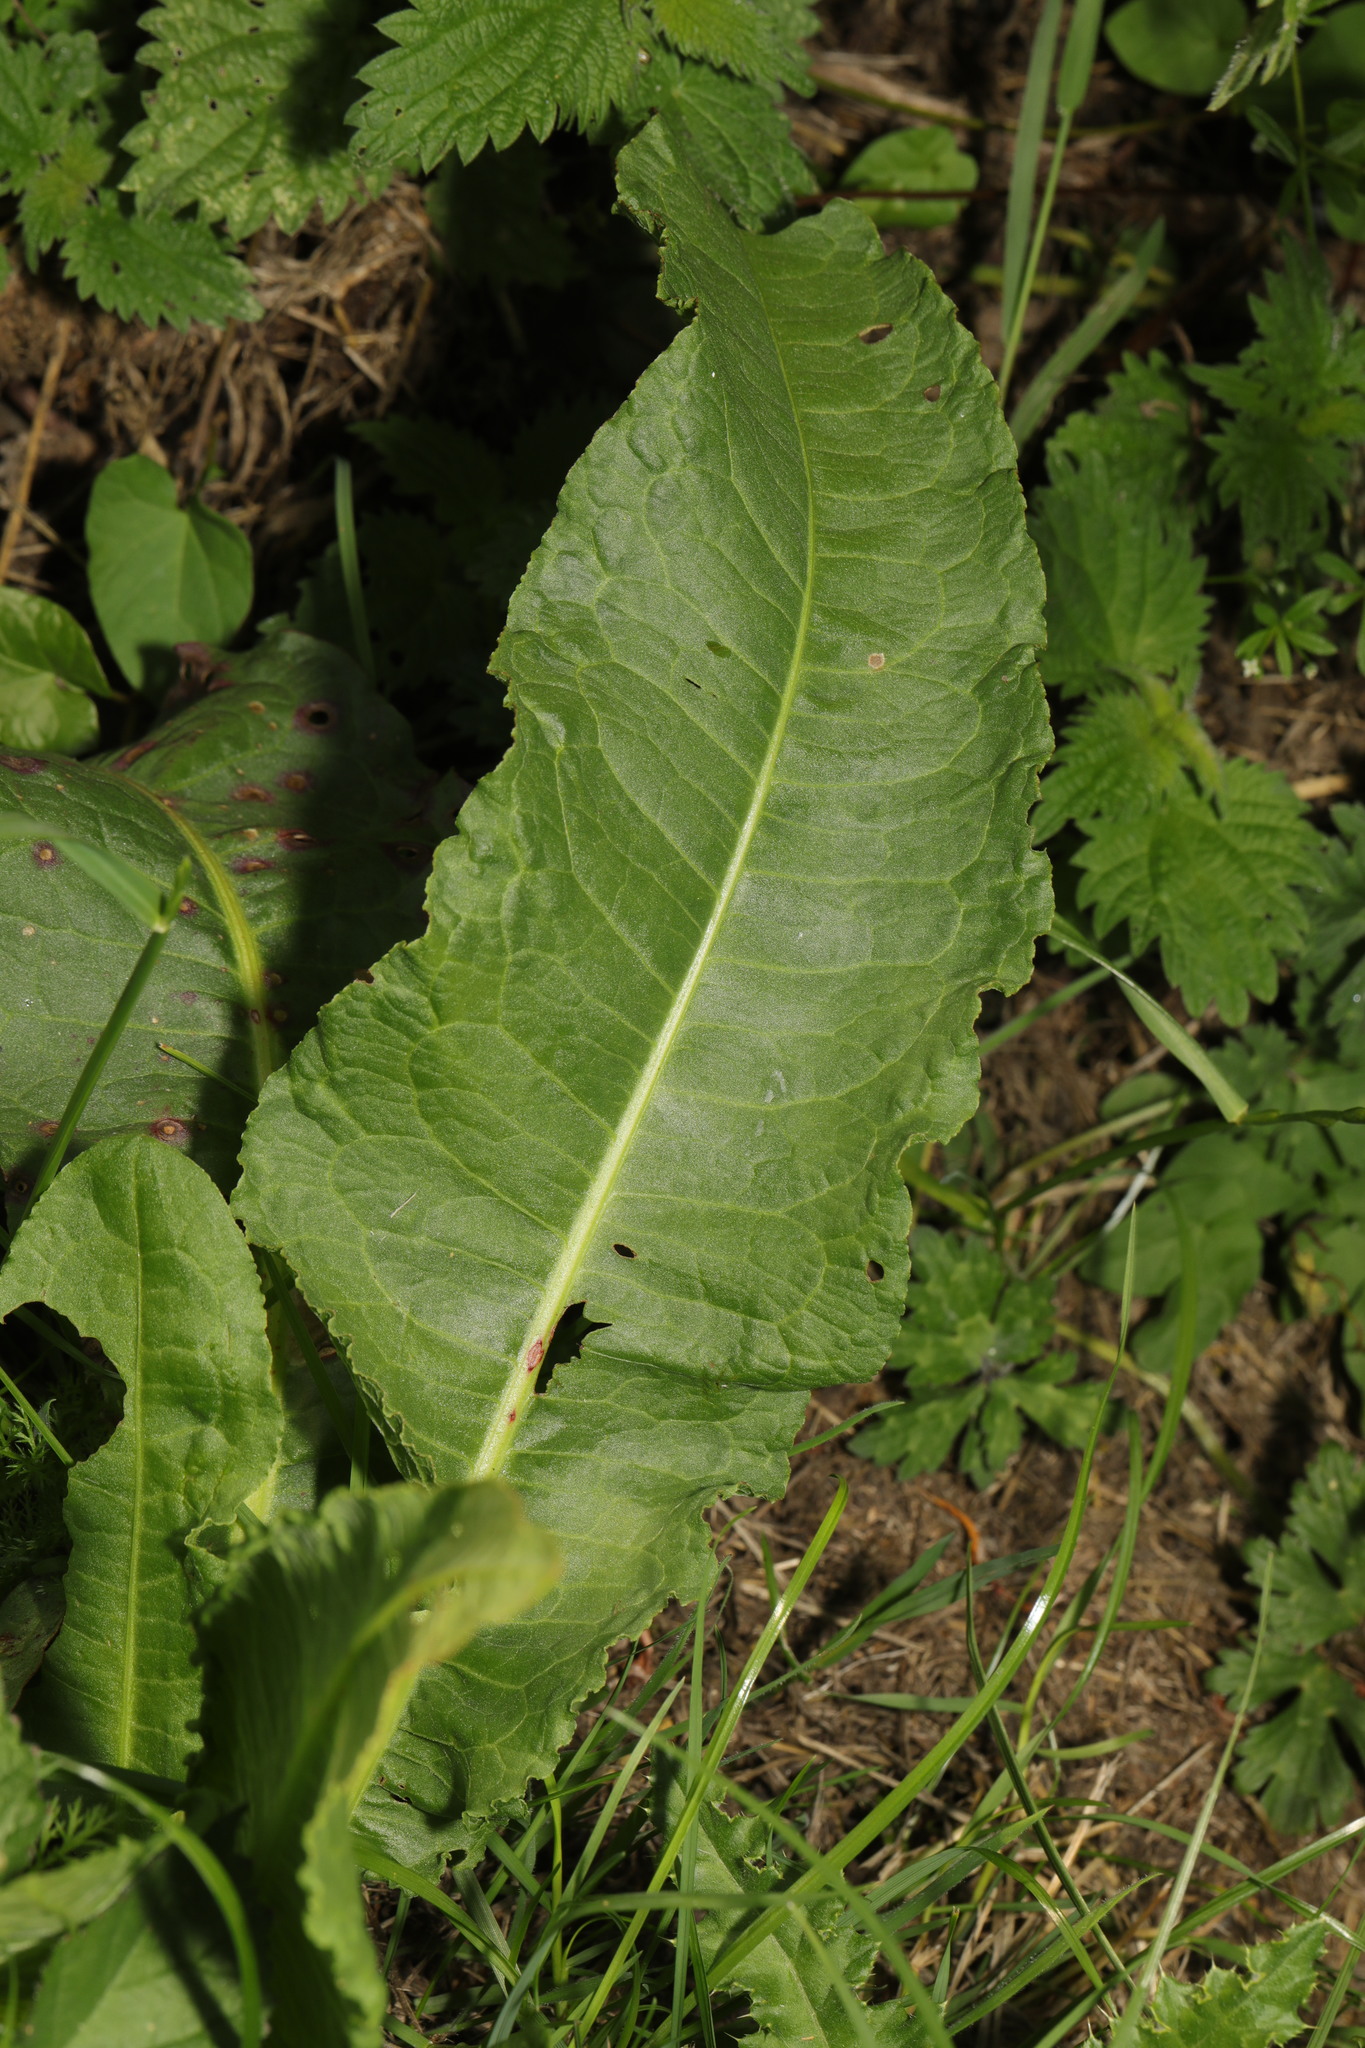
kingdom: Plantae
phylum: Tracheophyta
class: Magnoliopsida
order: Caryophyllales
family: Polygonaceae
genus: Rumex
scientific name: Rumex crispus
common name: Curled dock
